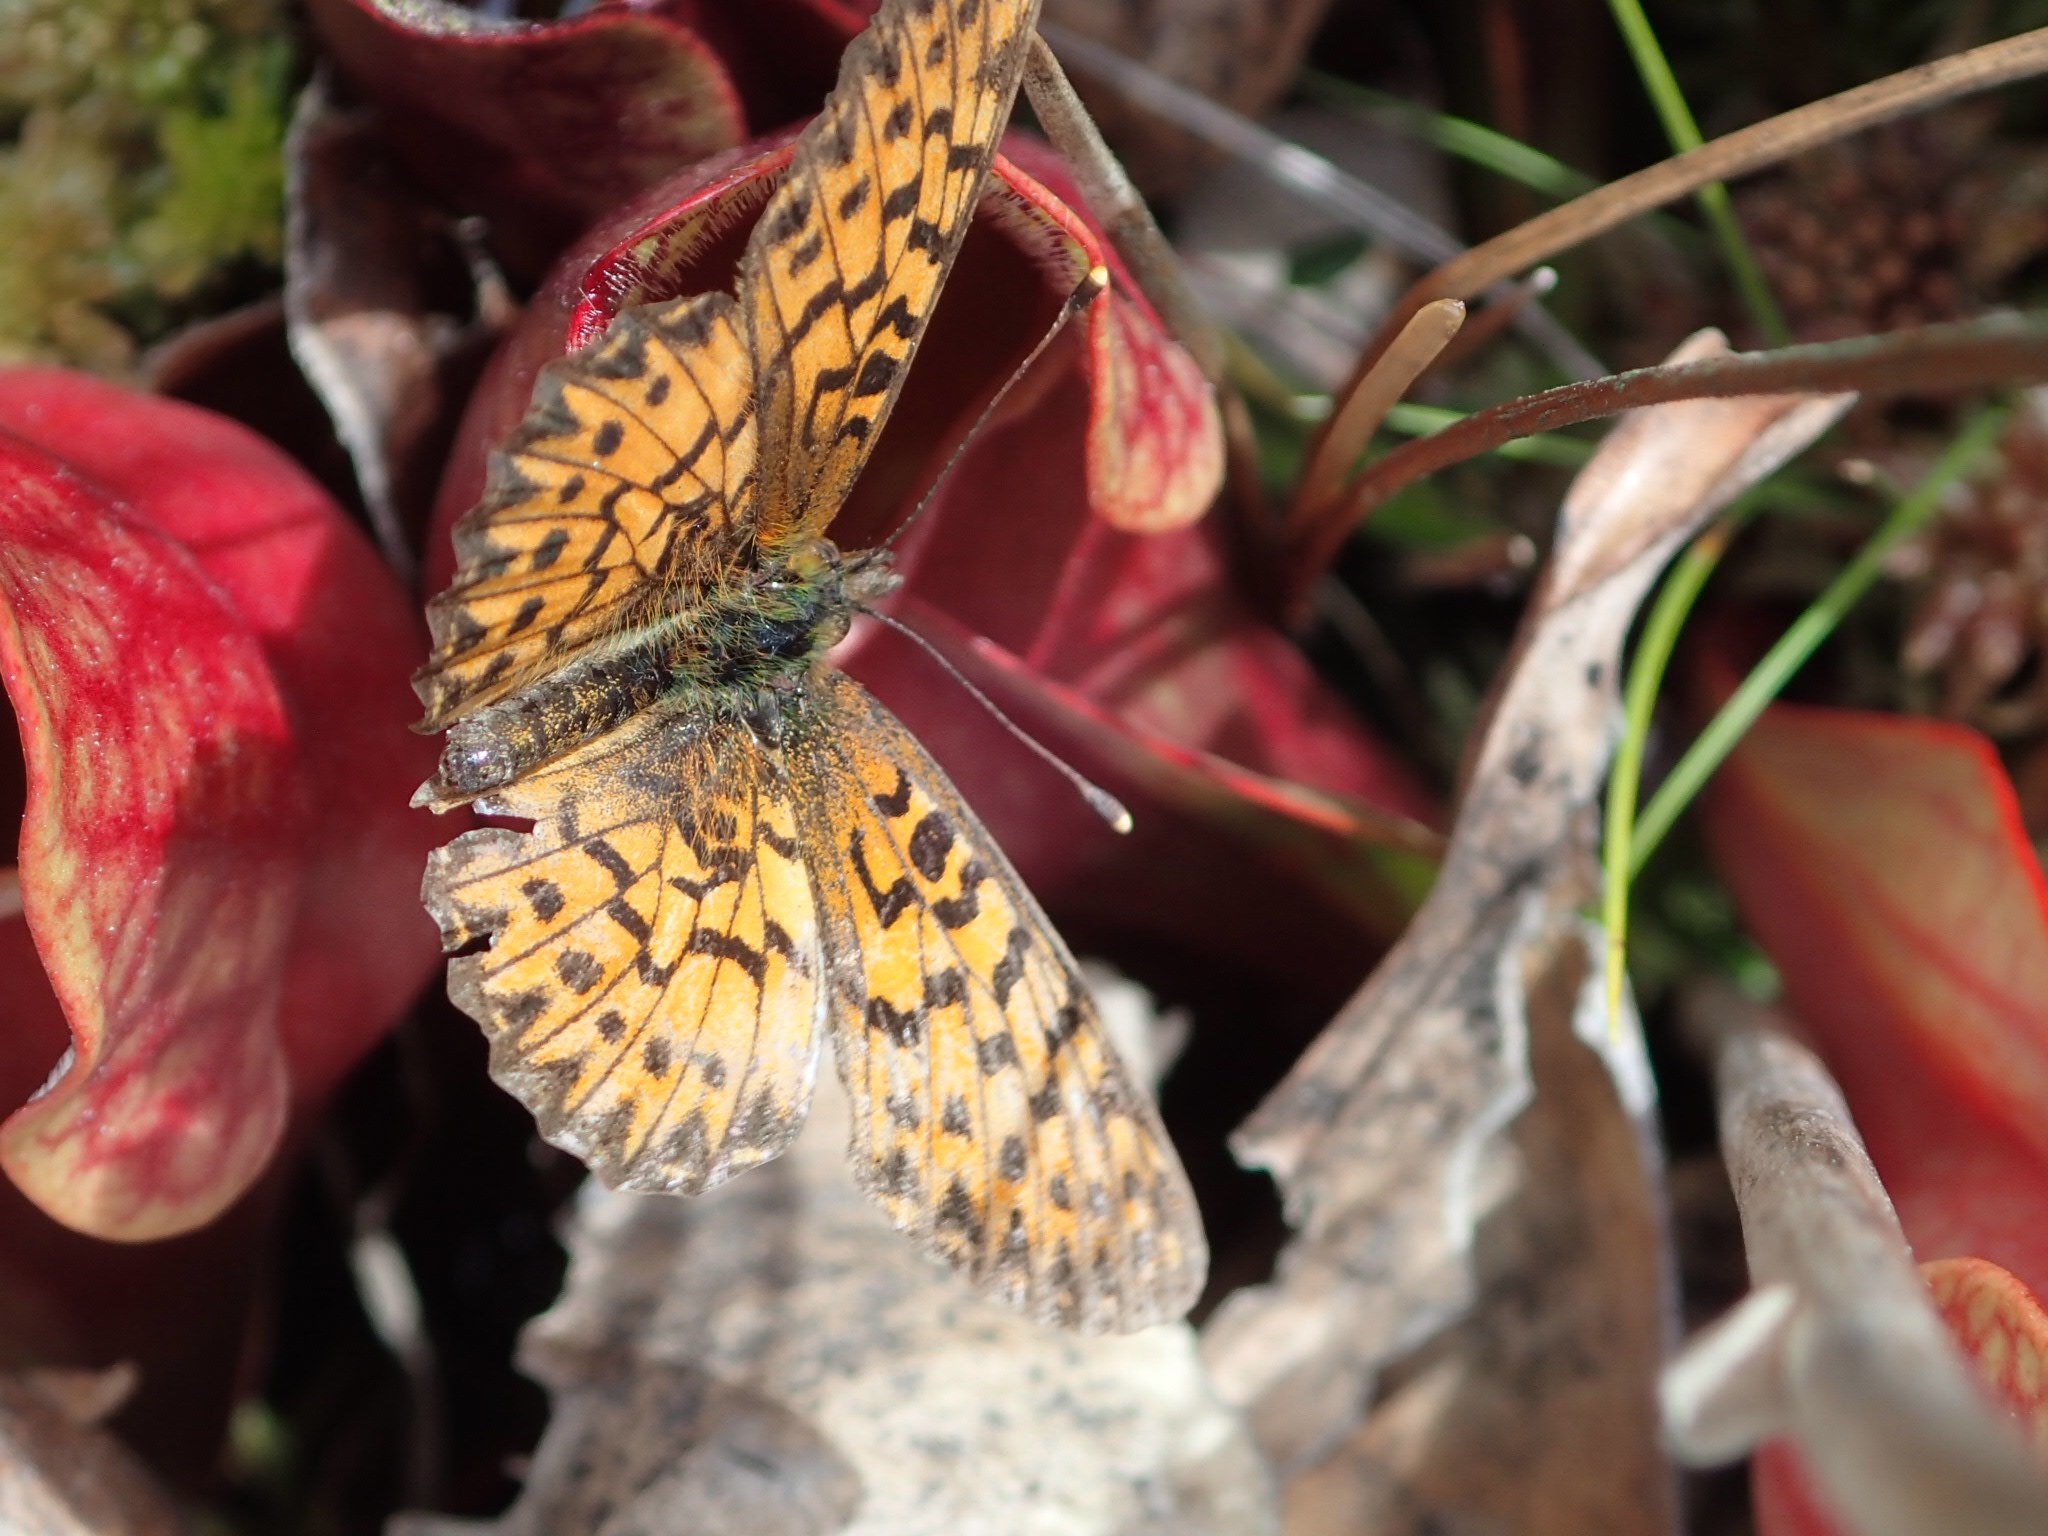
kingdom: Animalia
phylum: Arthropoda
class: Insecta
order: Lepidoptera
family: Nymphalidae
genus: Boloria
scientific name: Boloria chariclea
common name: Arctic fritillary
